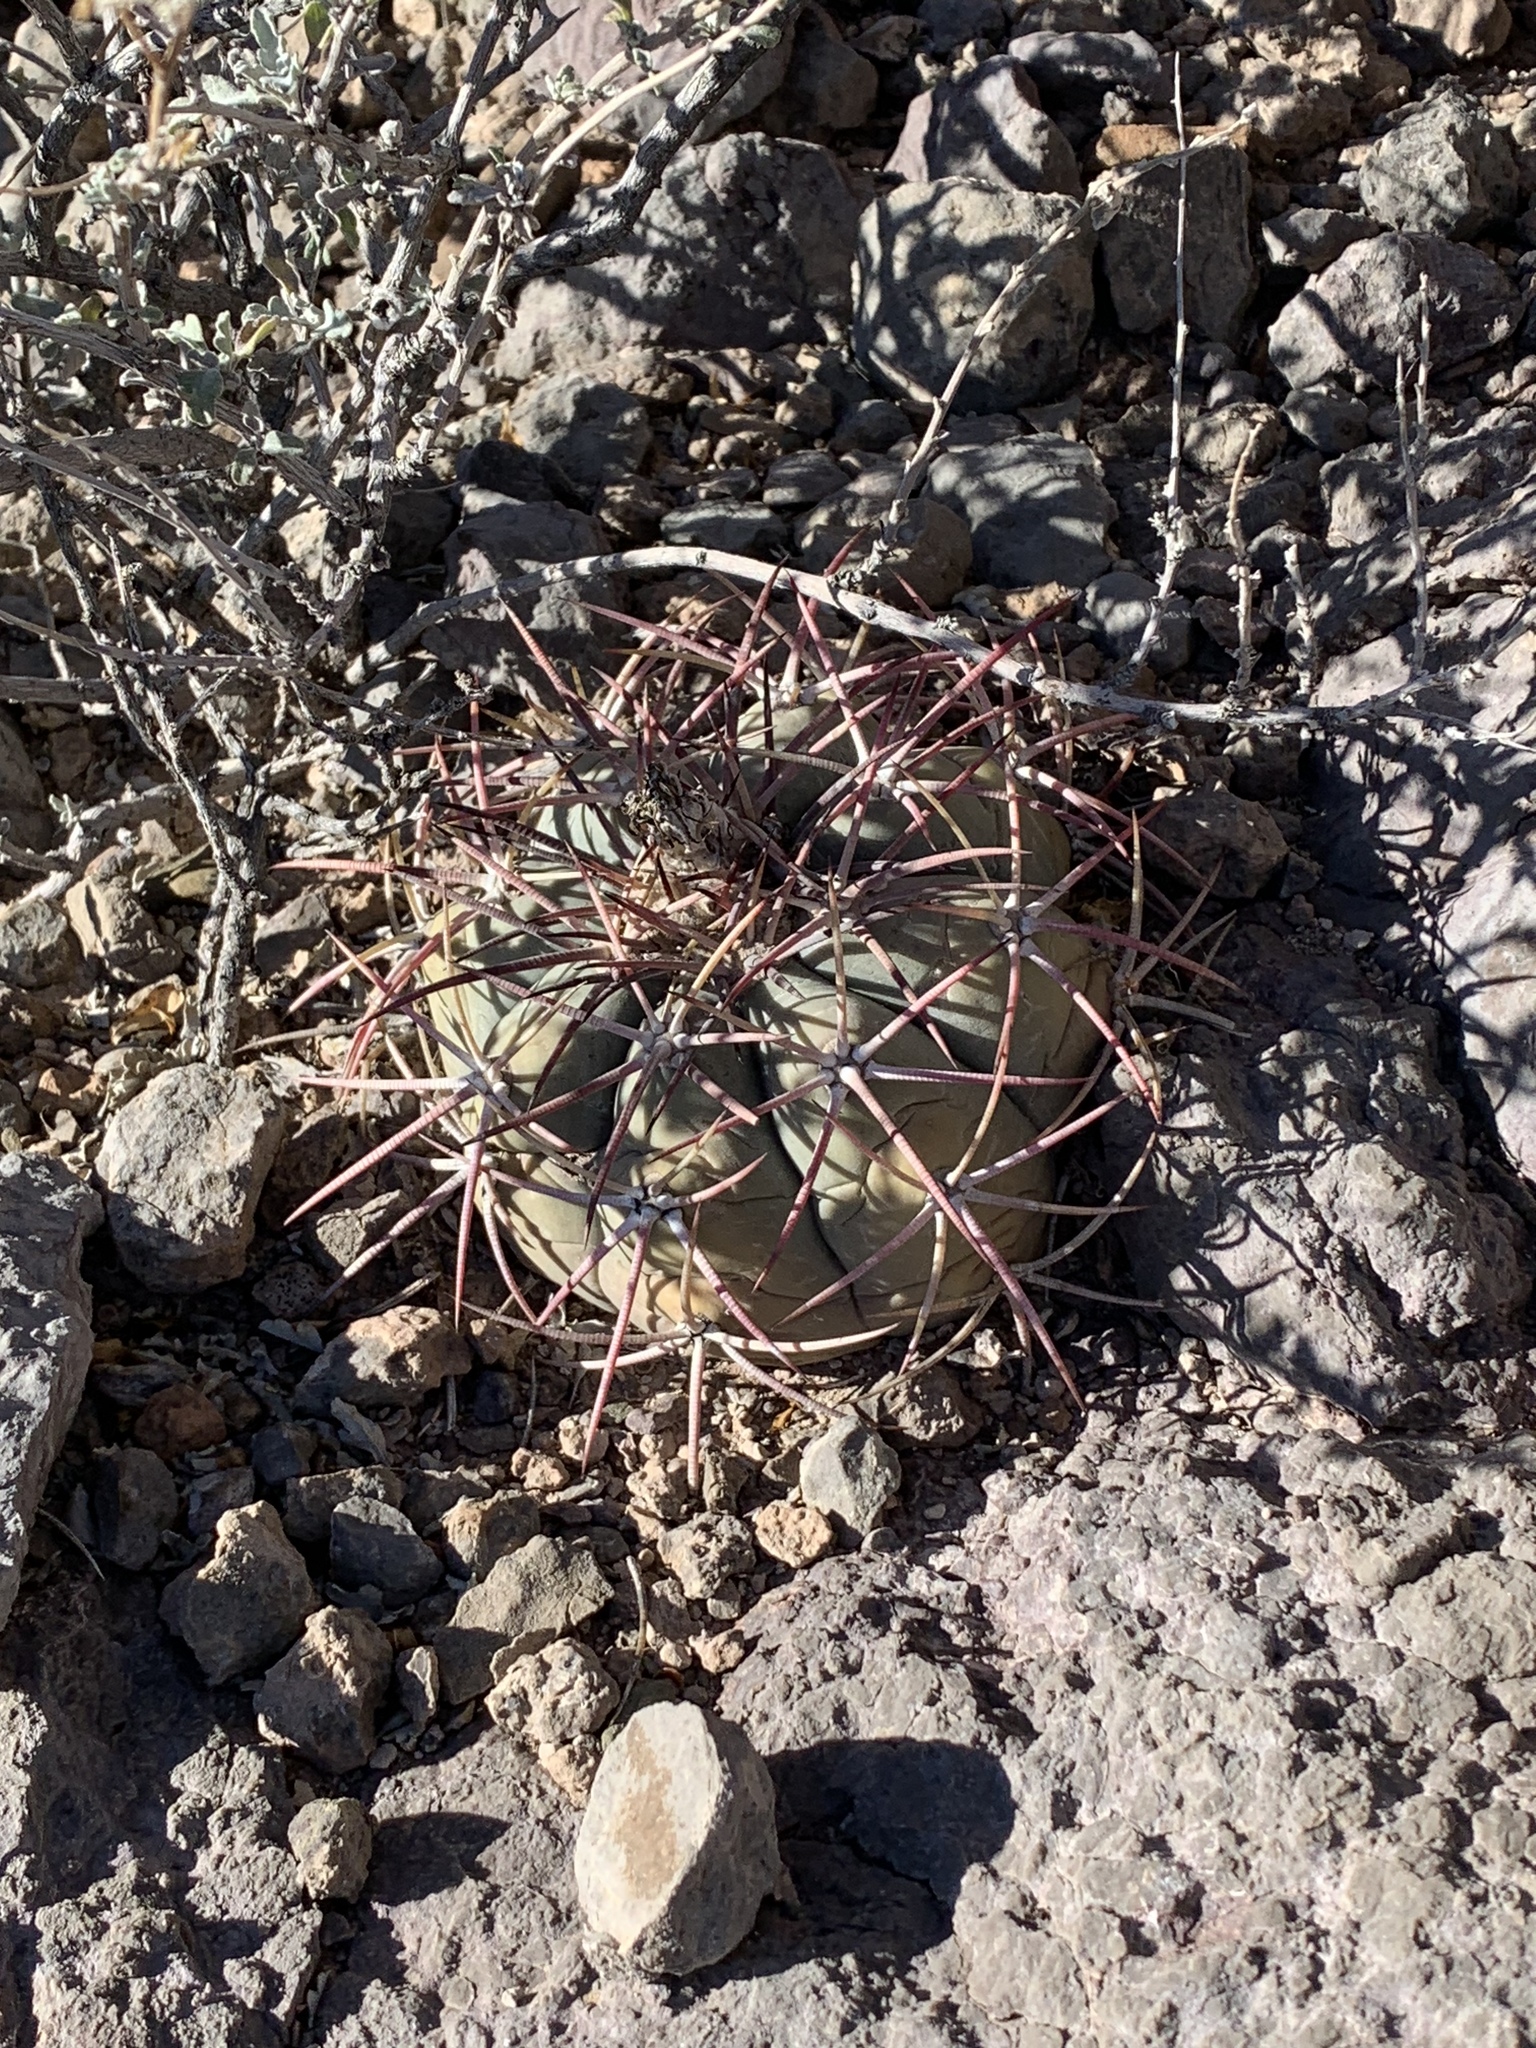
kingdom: Plantae
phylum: Tracheophyta
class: Magnoliopsida
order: Caryophyllales
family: Cactaceae
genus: Echinocactus
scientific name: Echinocactus horizonthalonius
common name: Devilshead
